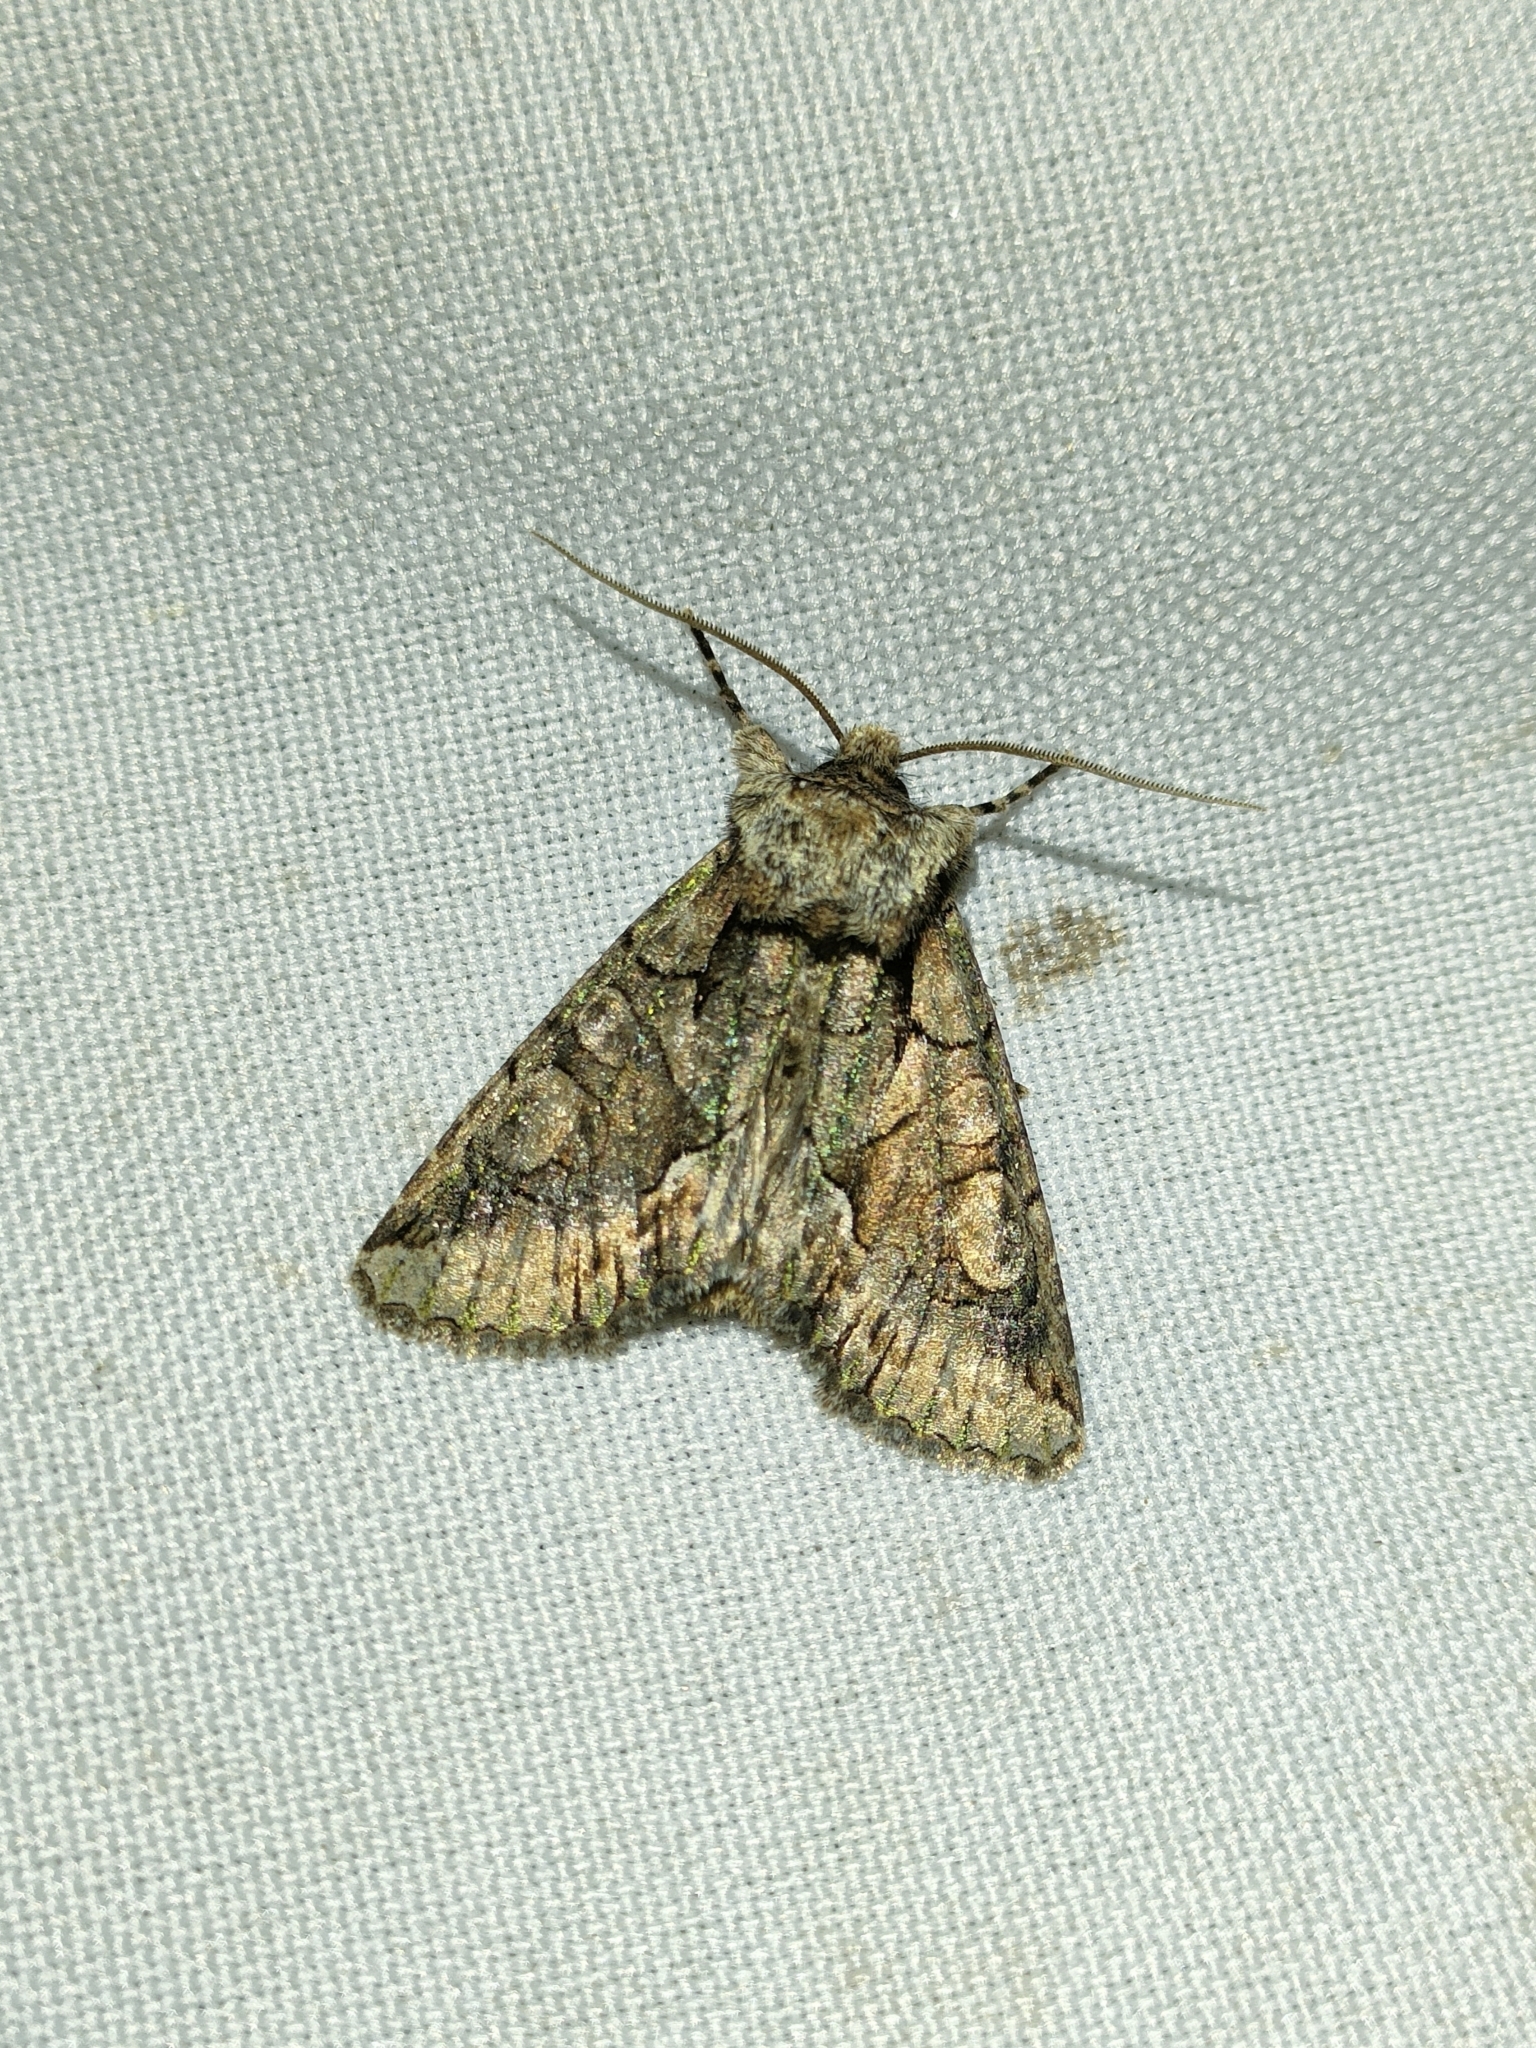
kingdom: Animalia
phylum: Arthropoda
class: Insecta
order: Lepidoptera
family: Noctuidae
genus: Allophyes
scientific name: Allophyes alfaroi
